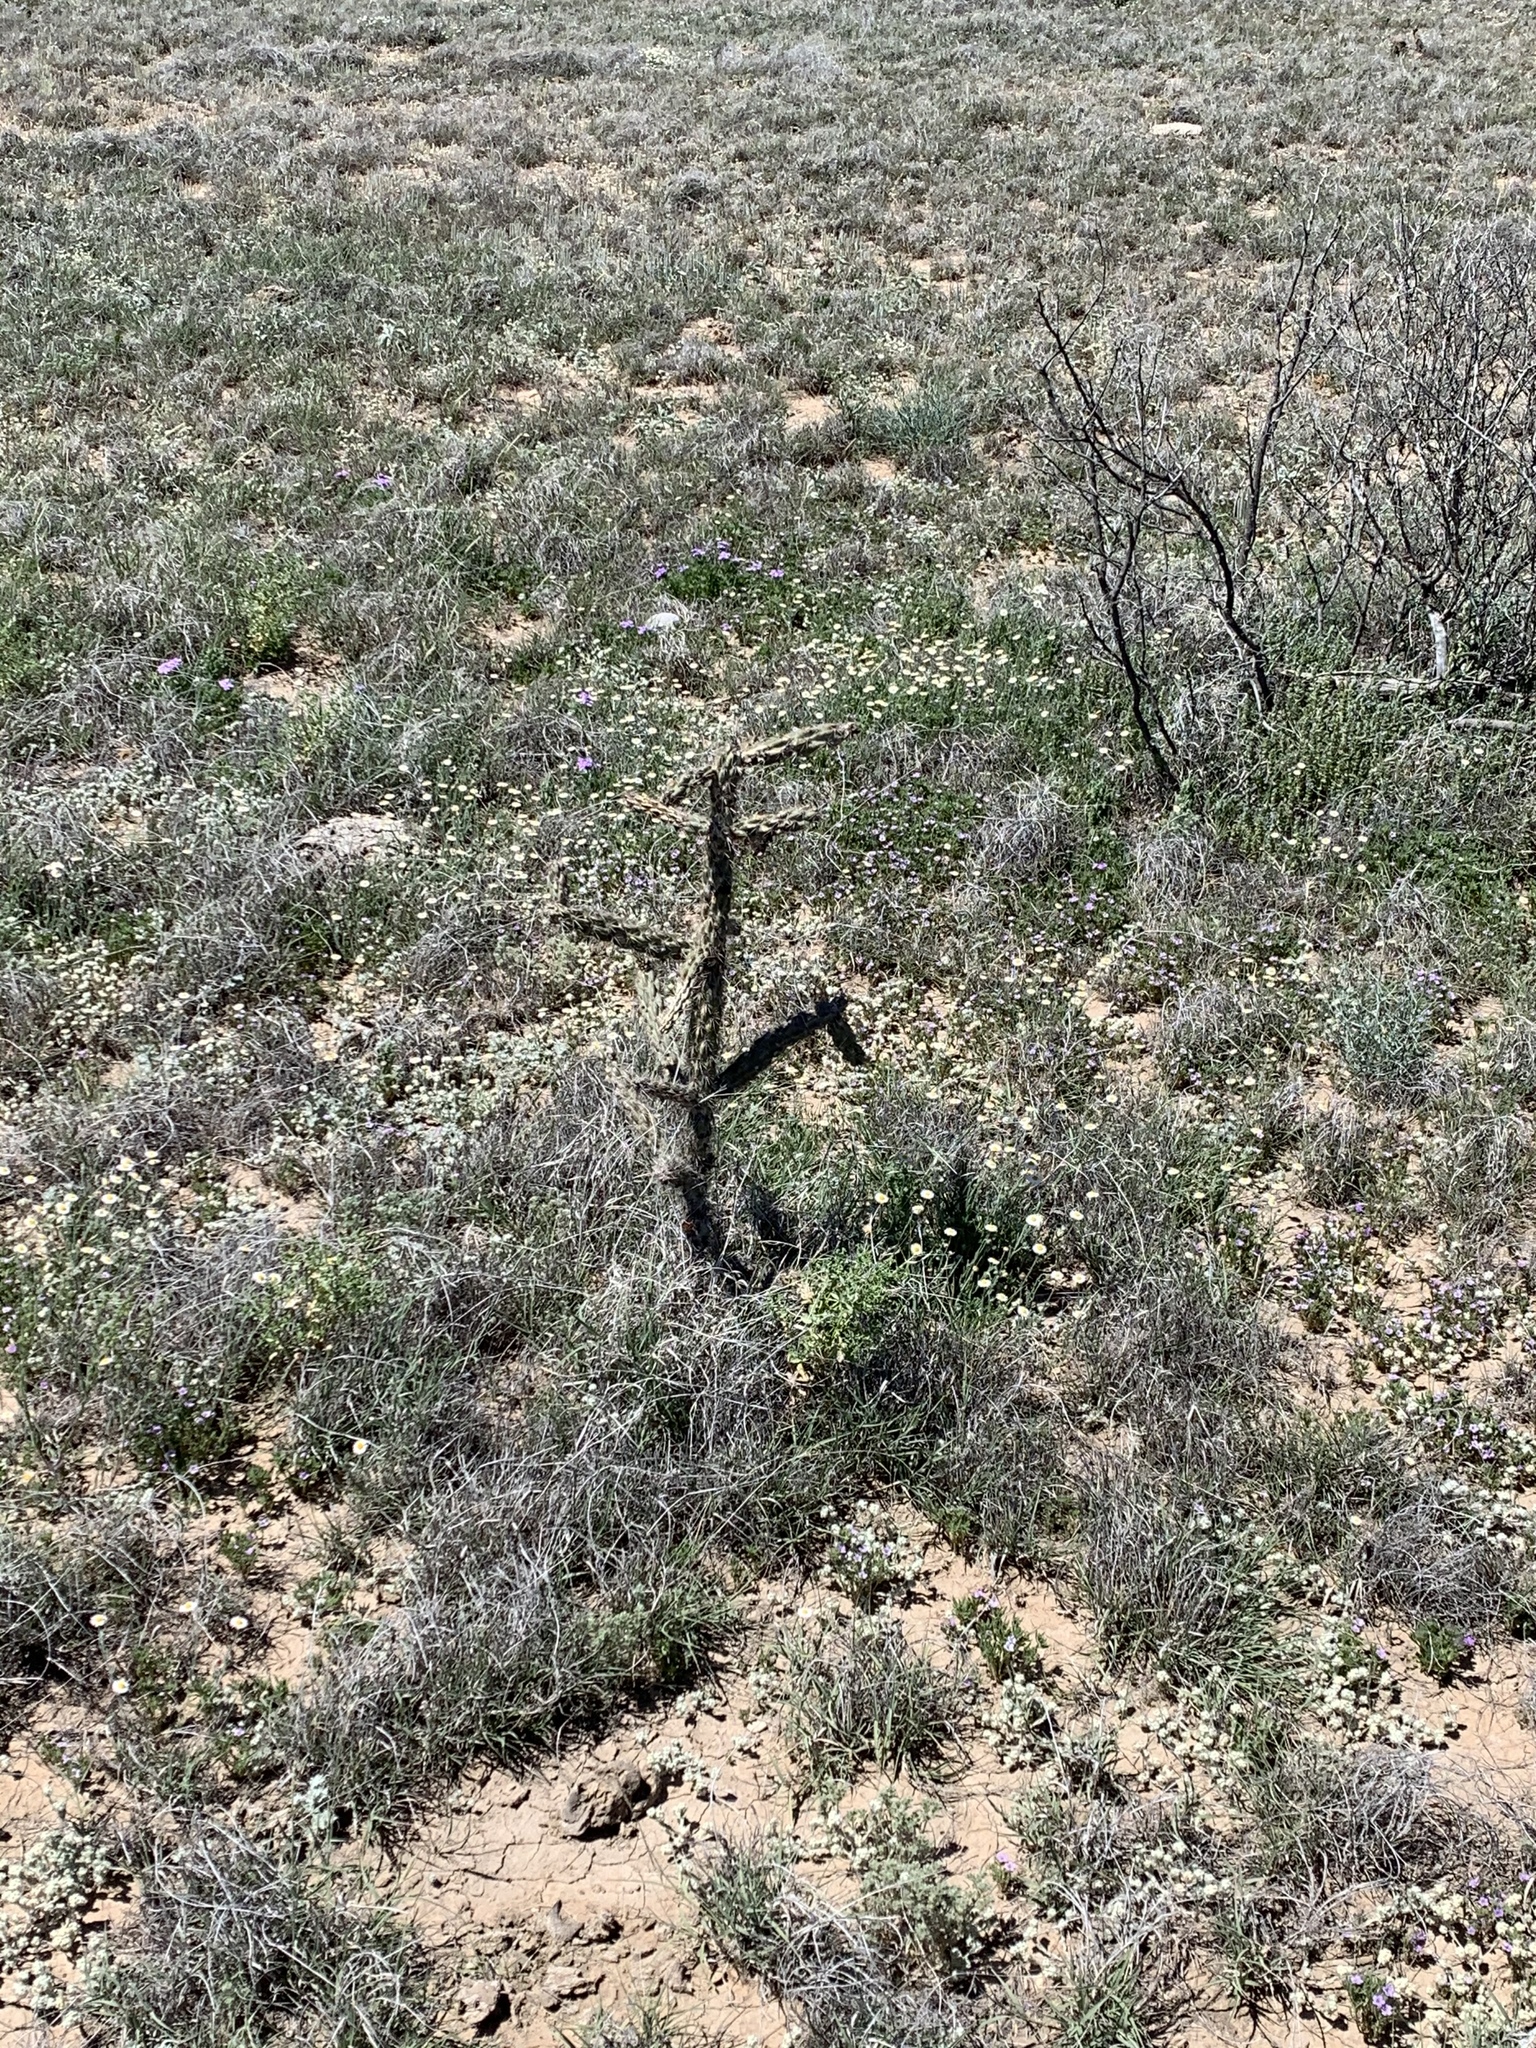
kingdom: Plantae
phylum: Tracheophyta
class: Magnoliopsida
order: Caryophyllales
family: Cactaceae
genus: Cylindropuntia
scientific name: Cylindropuntia imbricata
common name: Candelabrum cactus
